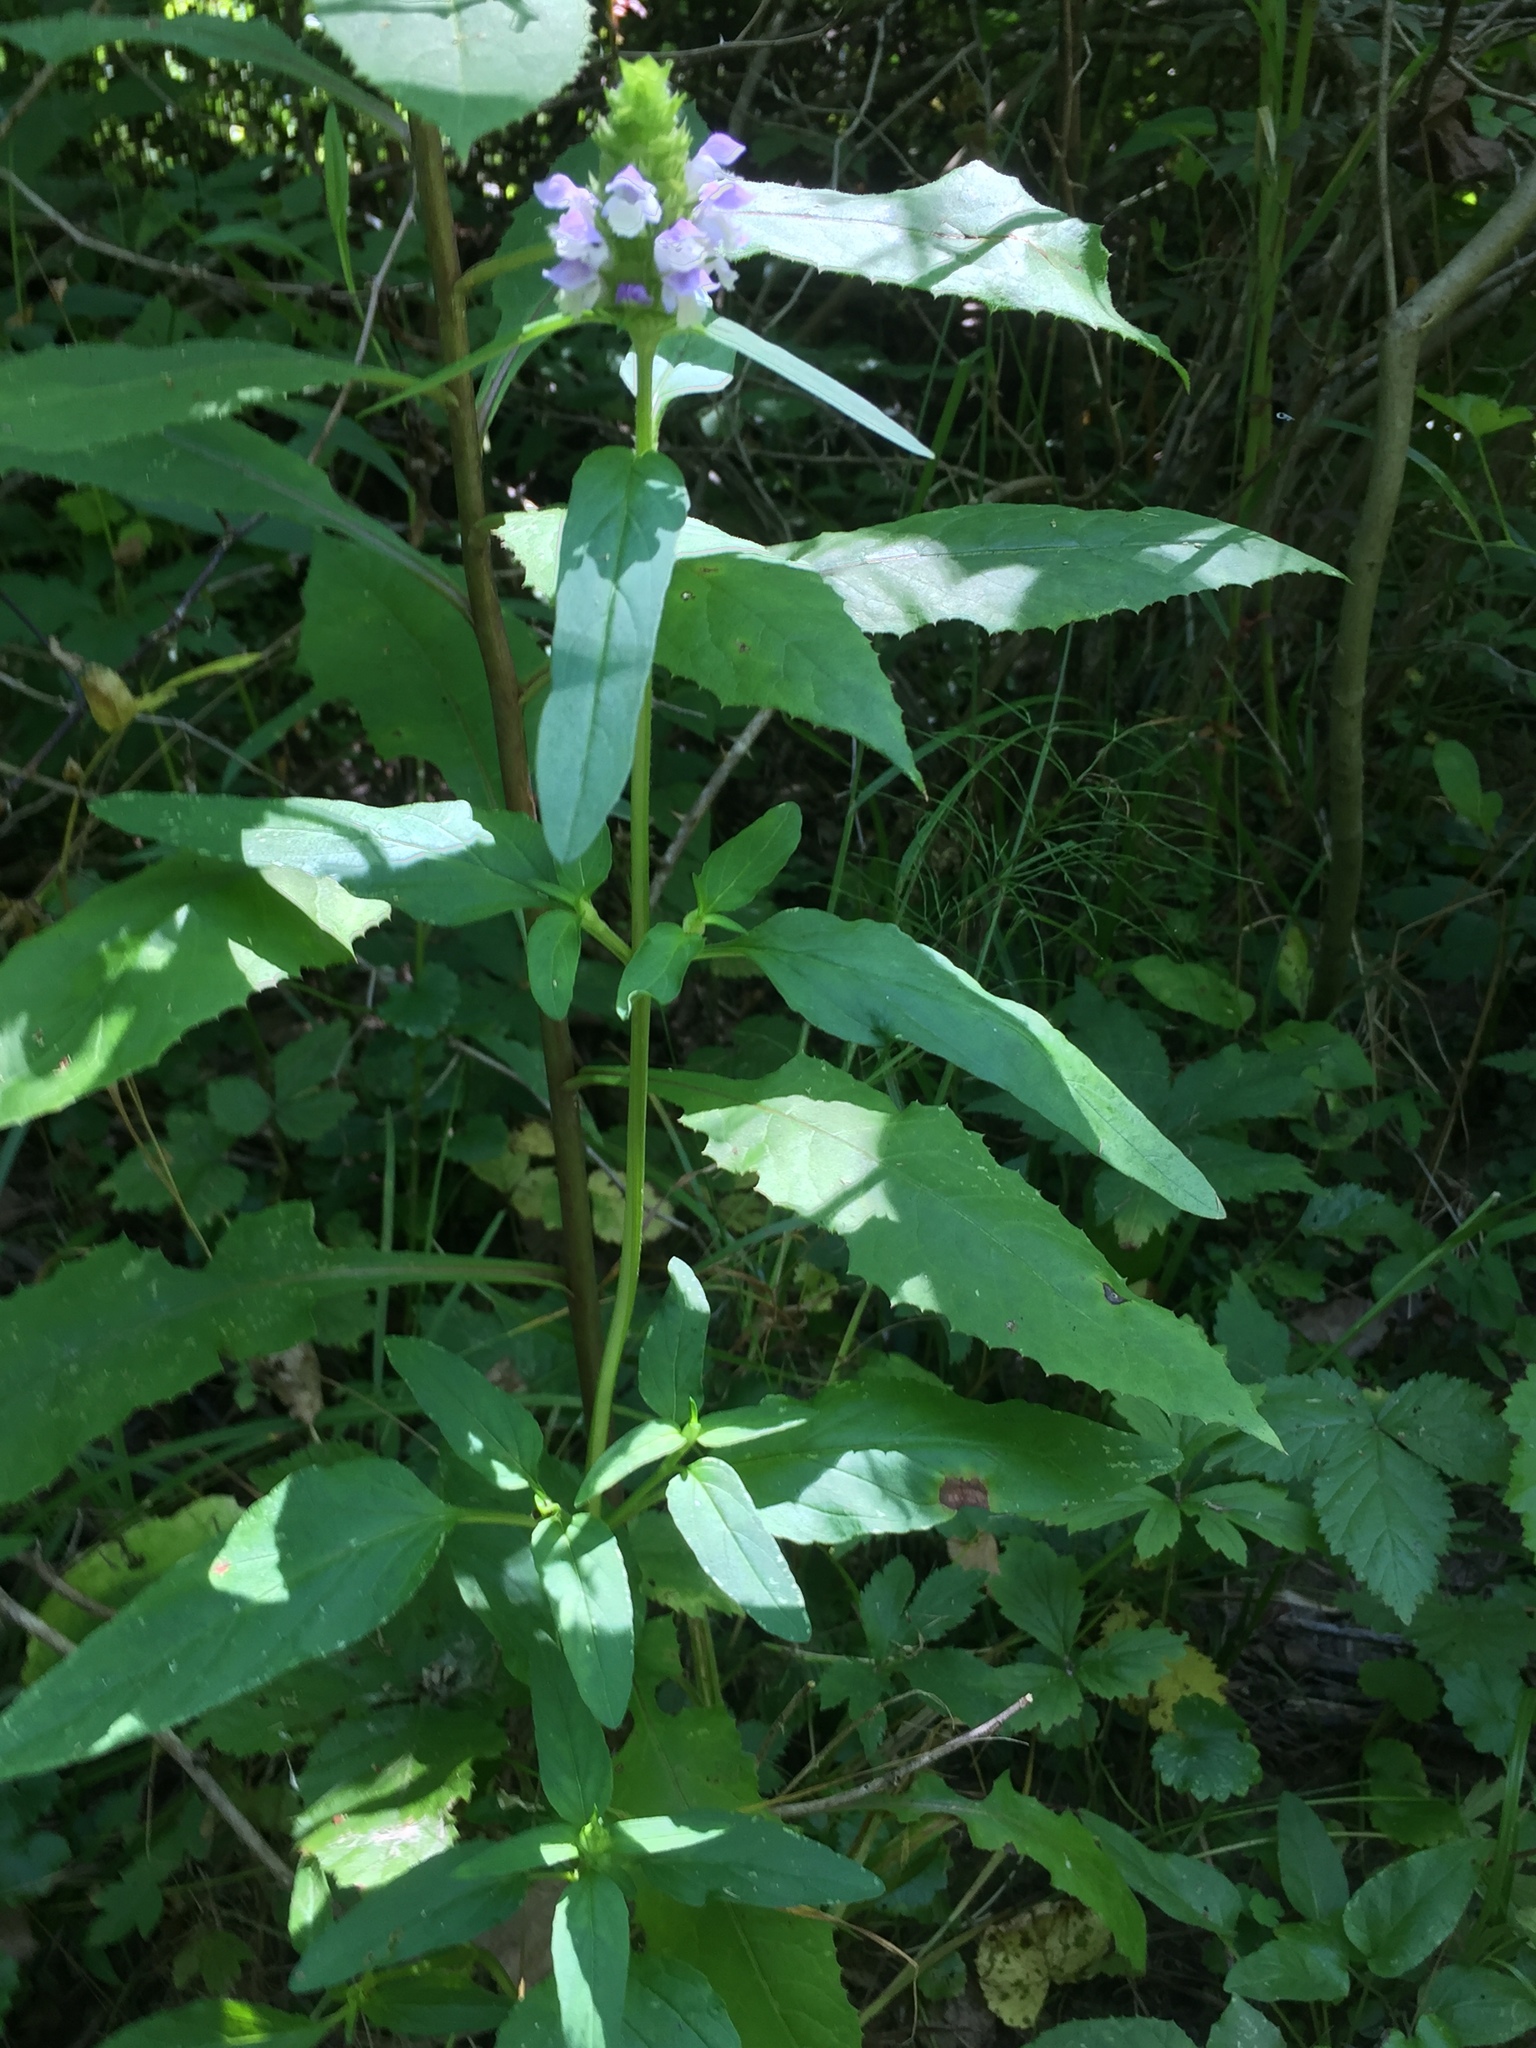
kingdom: Plantae
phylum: Tracheophyta
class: Magnoliopsida
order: Lamiales
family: Lamiaceae
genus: Prunella
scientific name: Prunella vulgaris
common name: Heal-all
